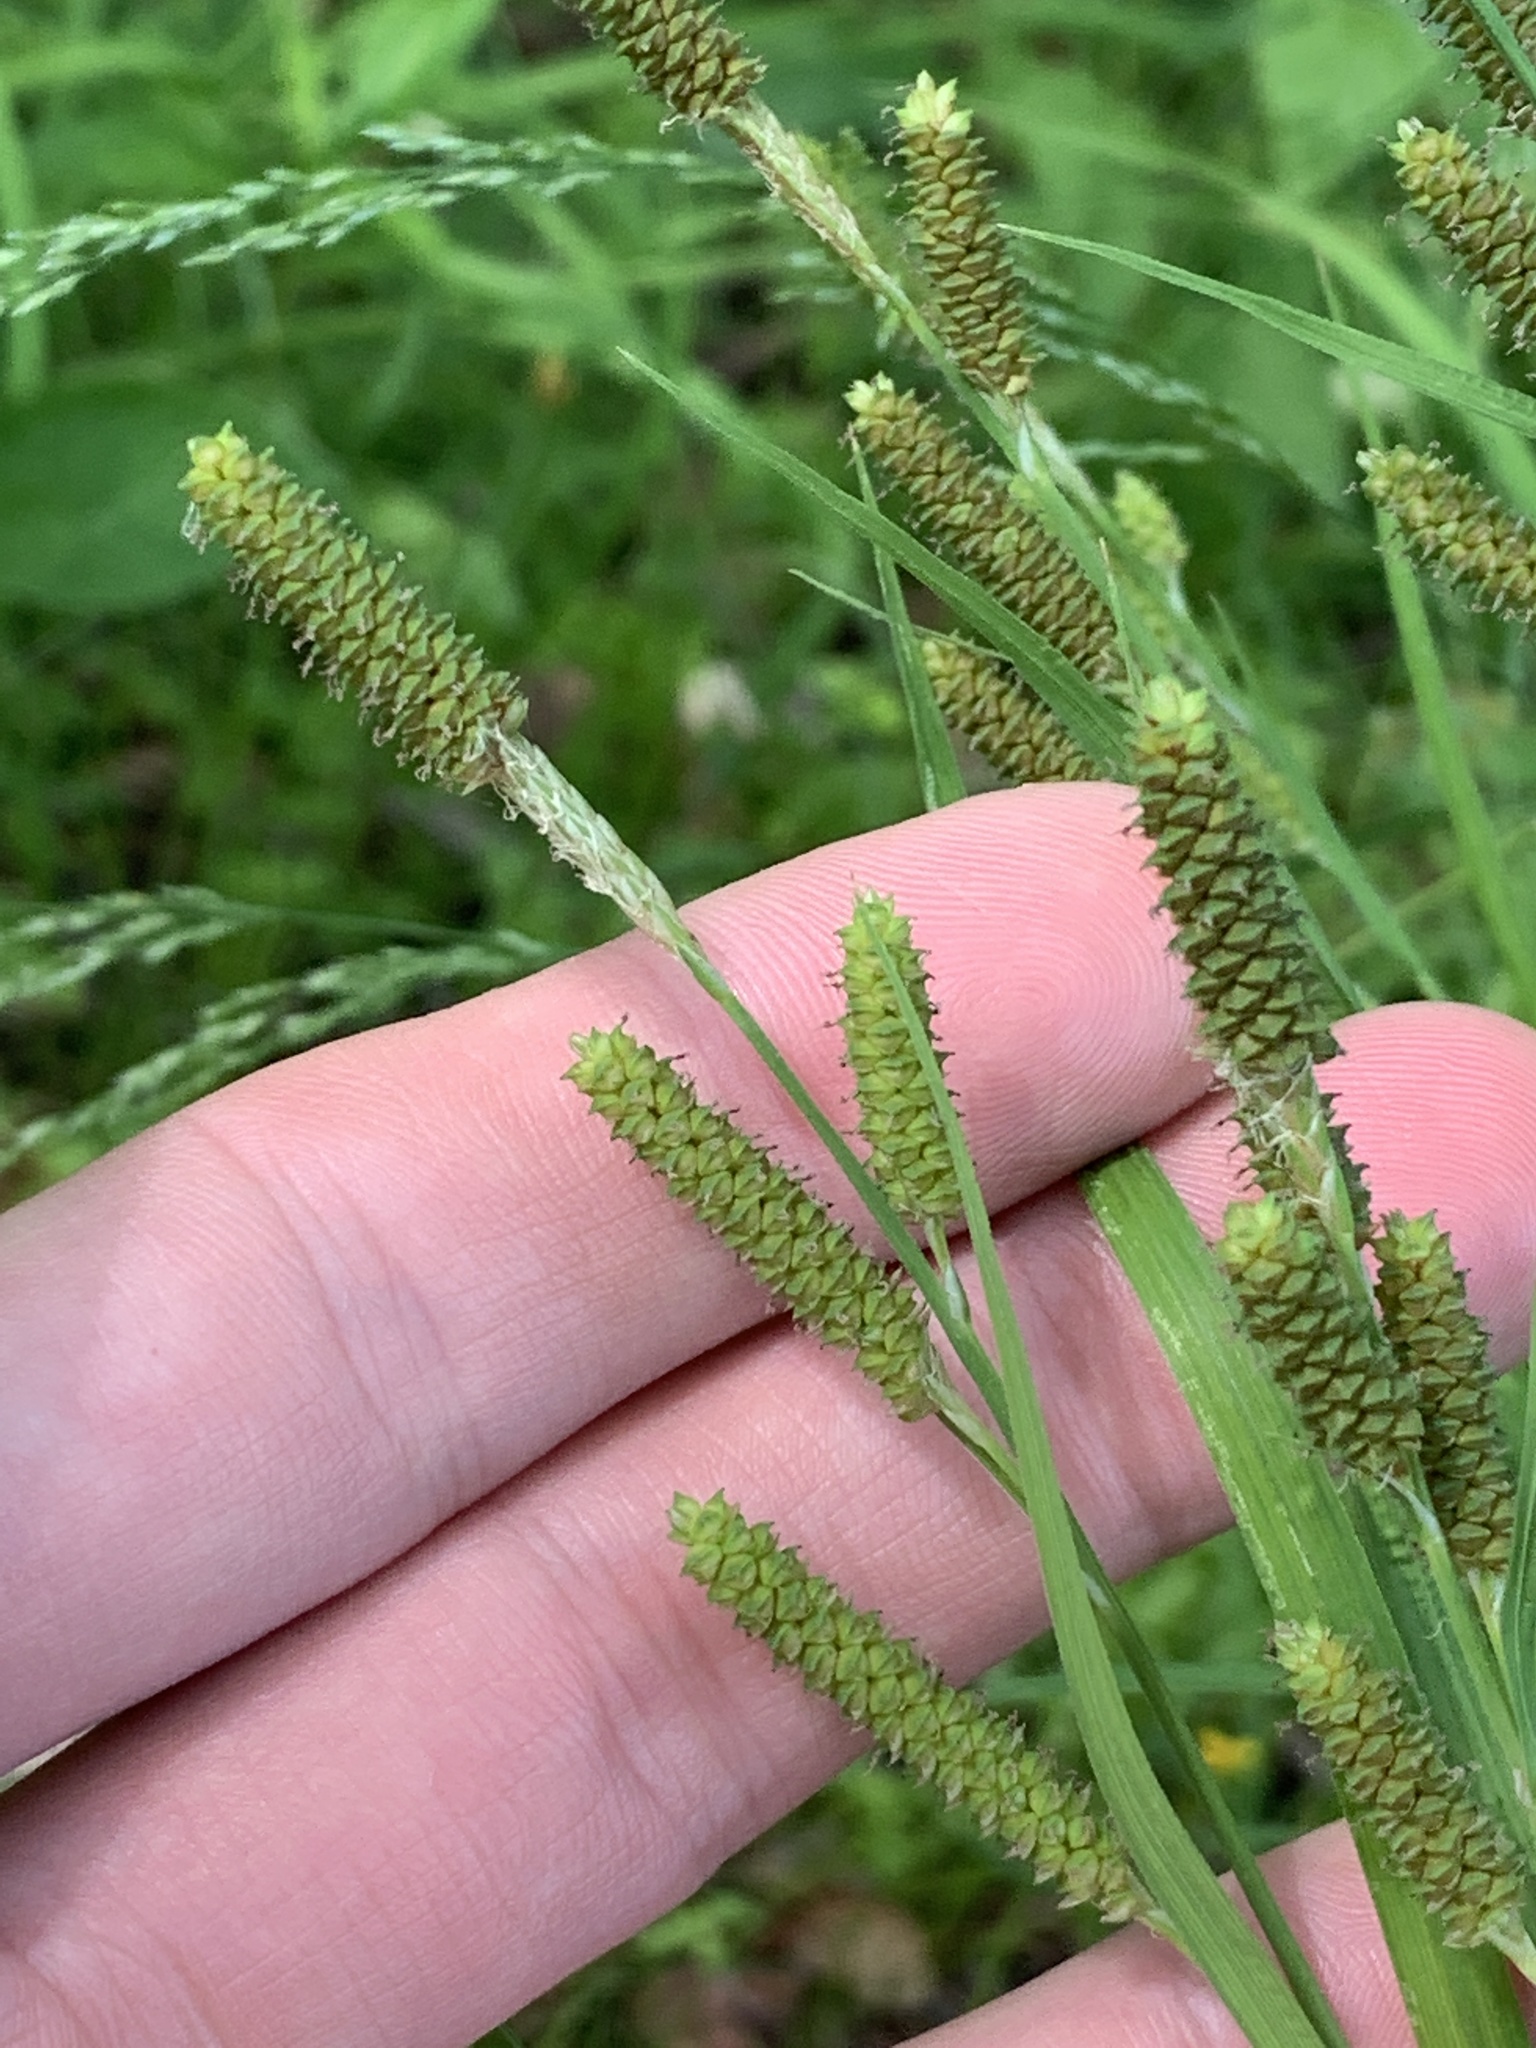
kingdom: Plantae
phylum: Tracheophyta
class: Liliopsida
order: Poales
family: Cyperaceae
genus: Carex
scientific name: Carex shortiana
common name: Short's sedge
